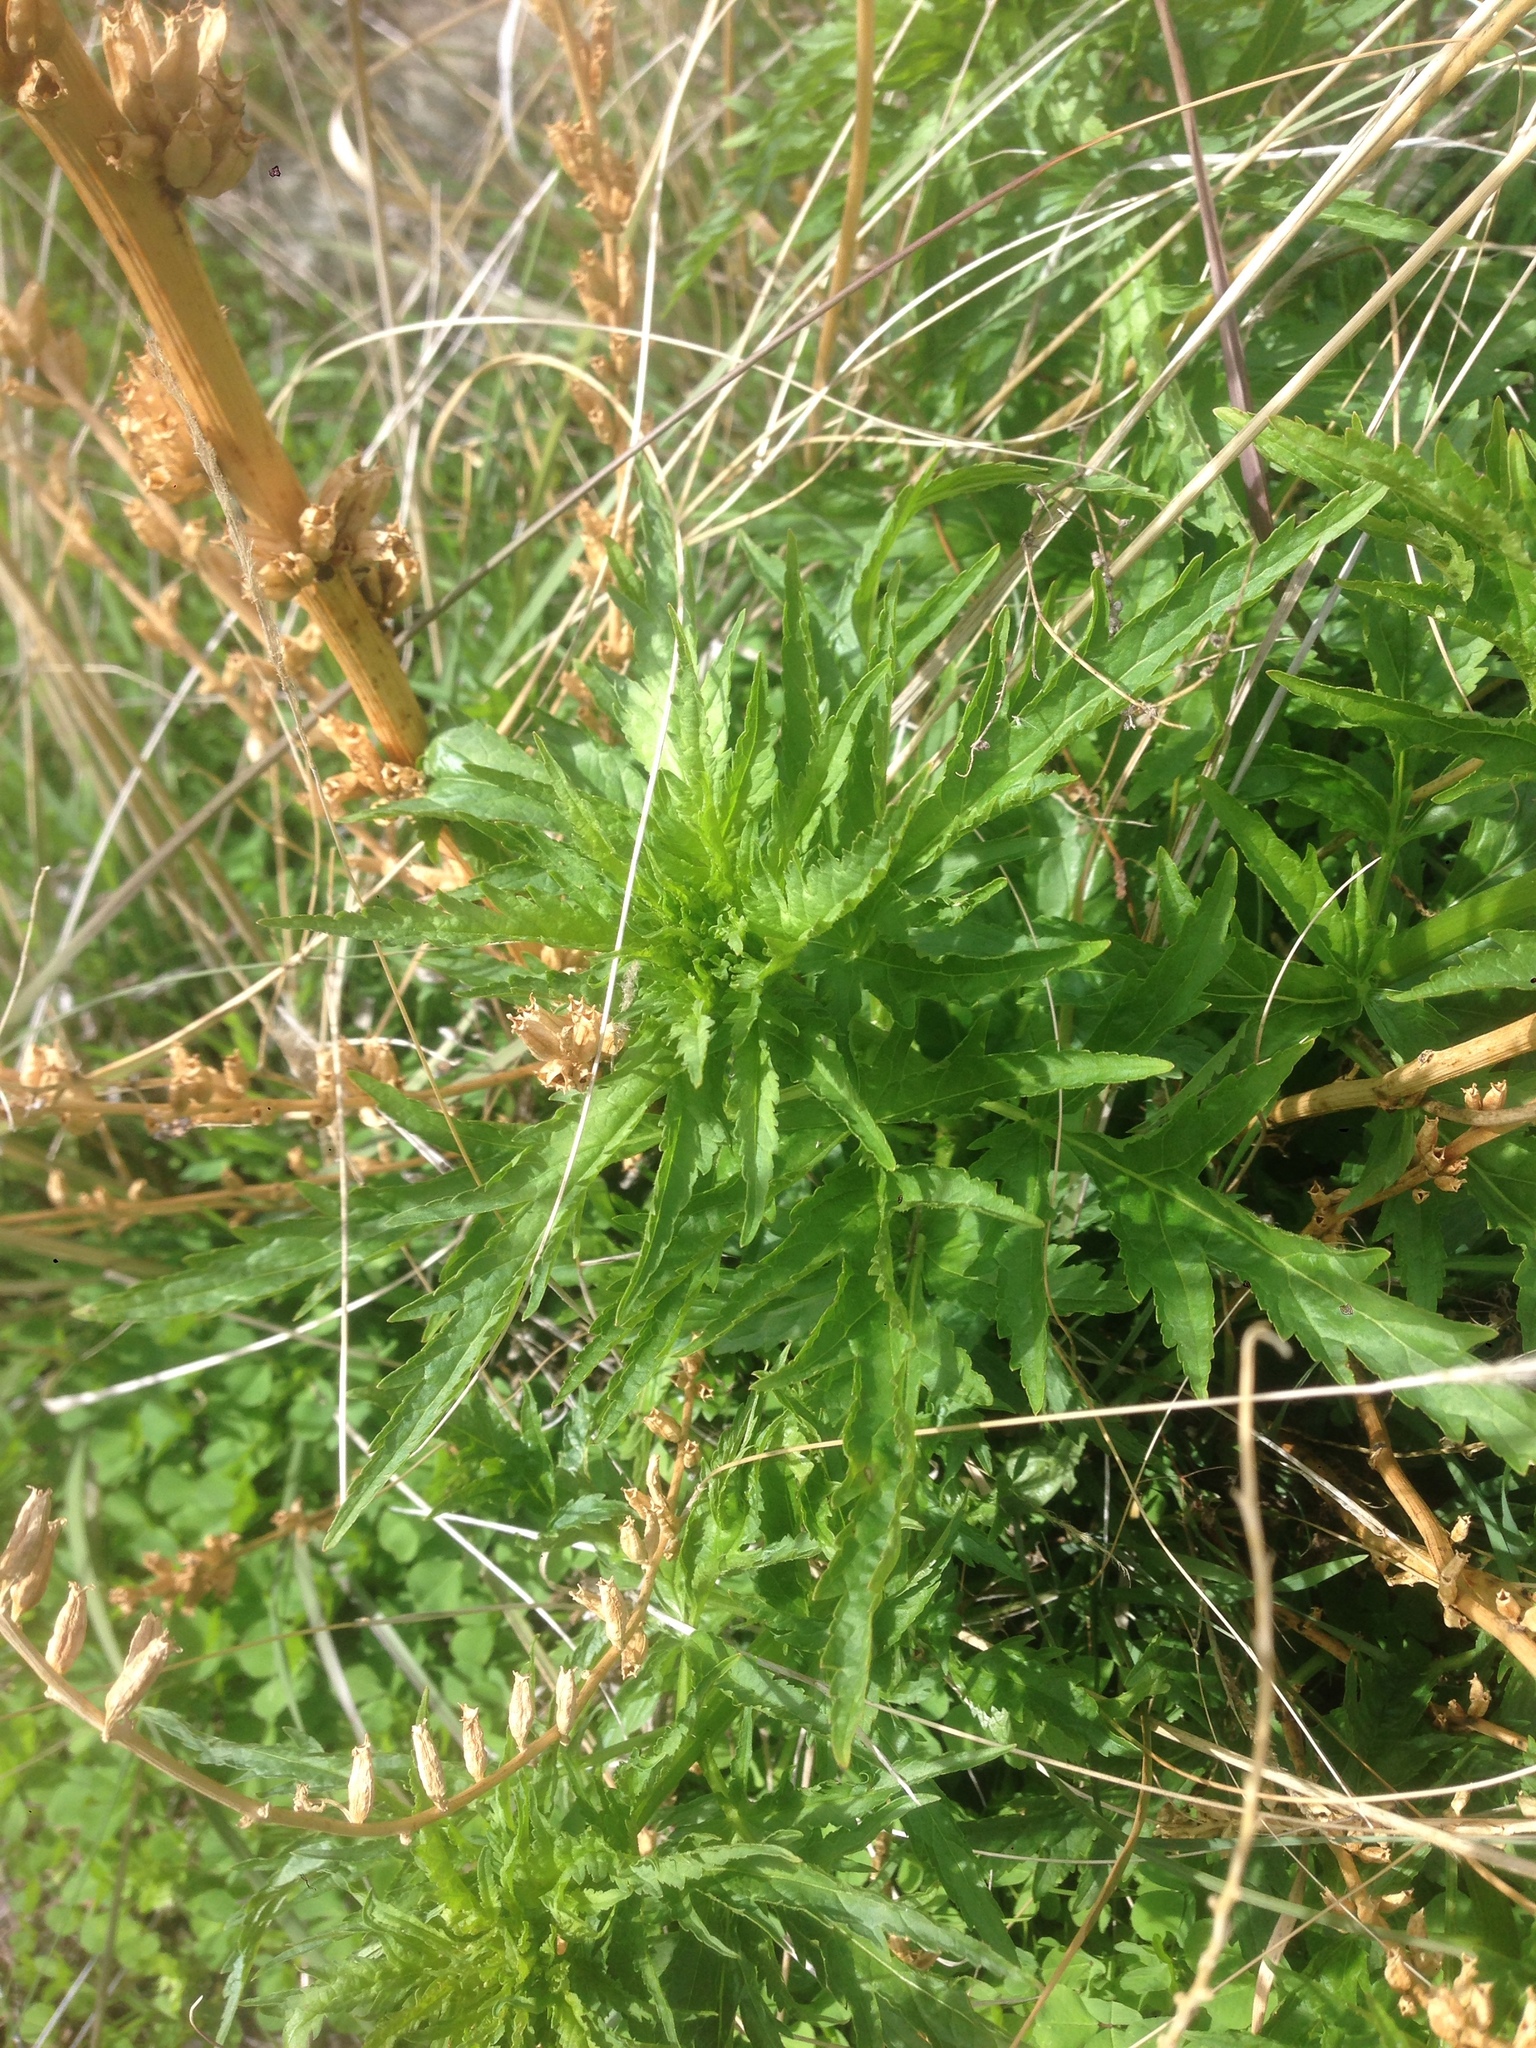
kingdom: Plantae
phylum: Tracheophyta
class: Magnoliopsida
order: Cucurbitales
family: Datiscaceae
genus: Datisca
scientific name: Datisca glomerata
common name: Durango-root
